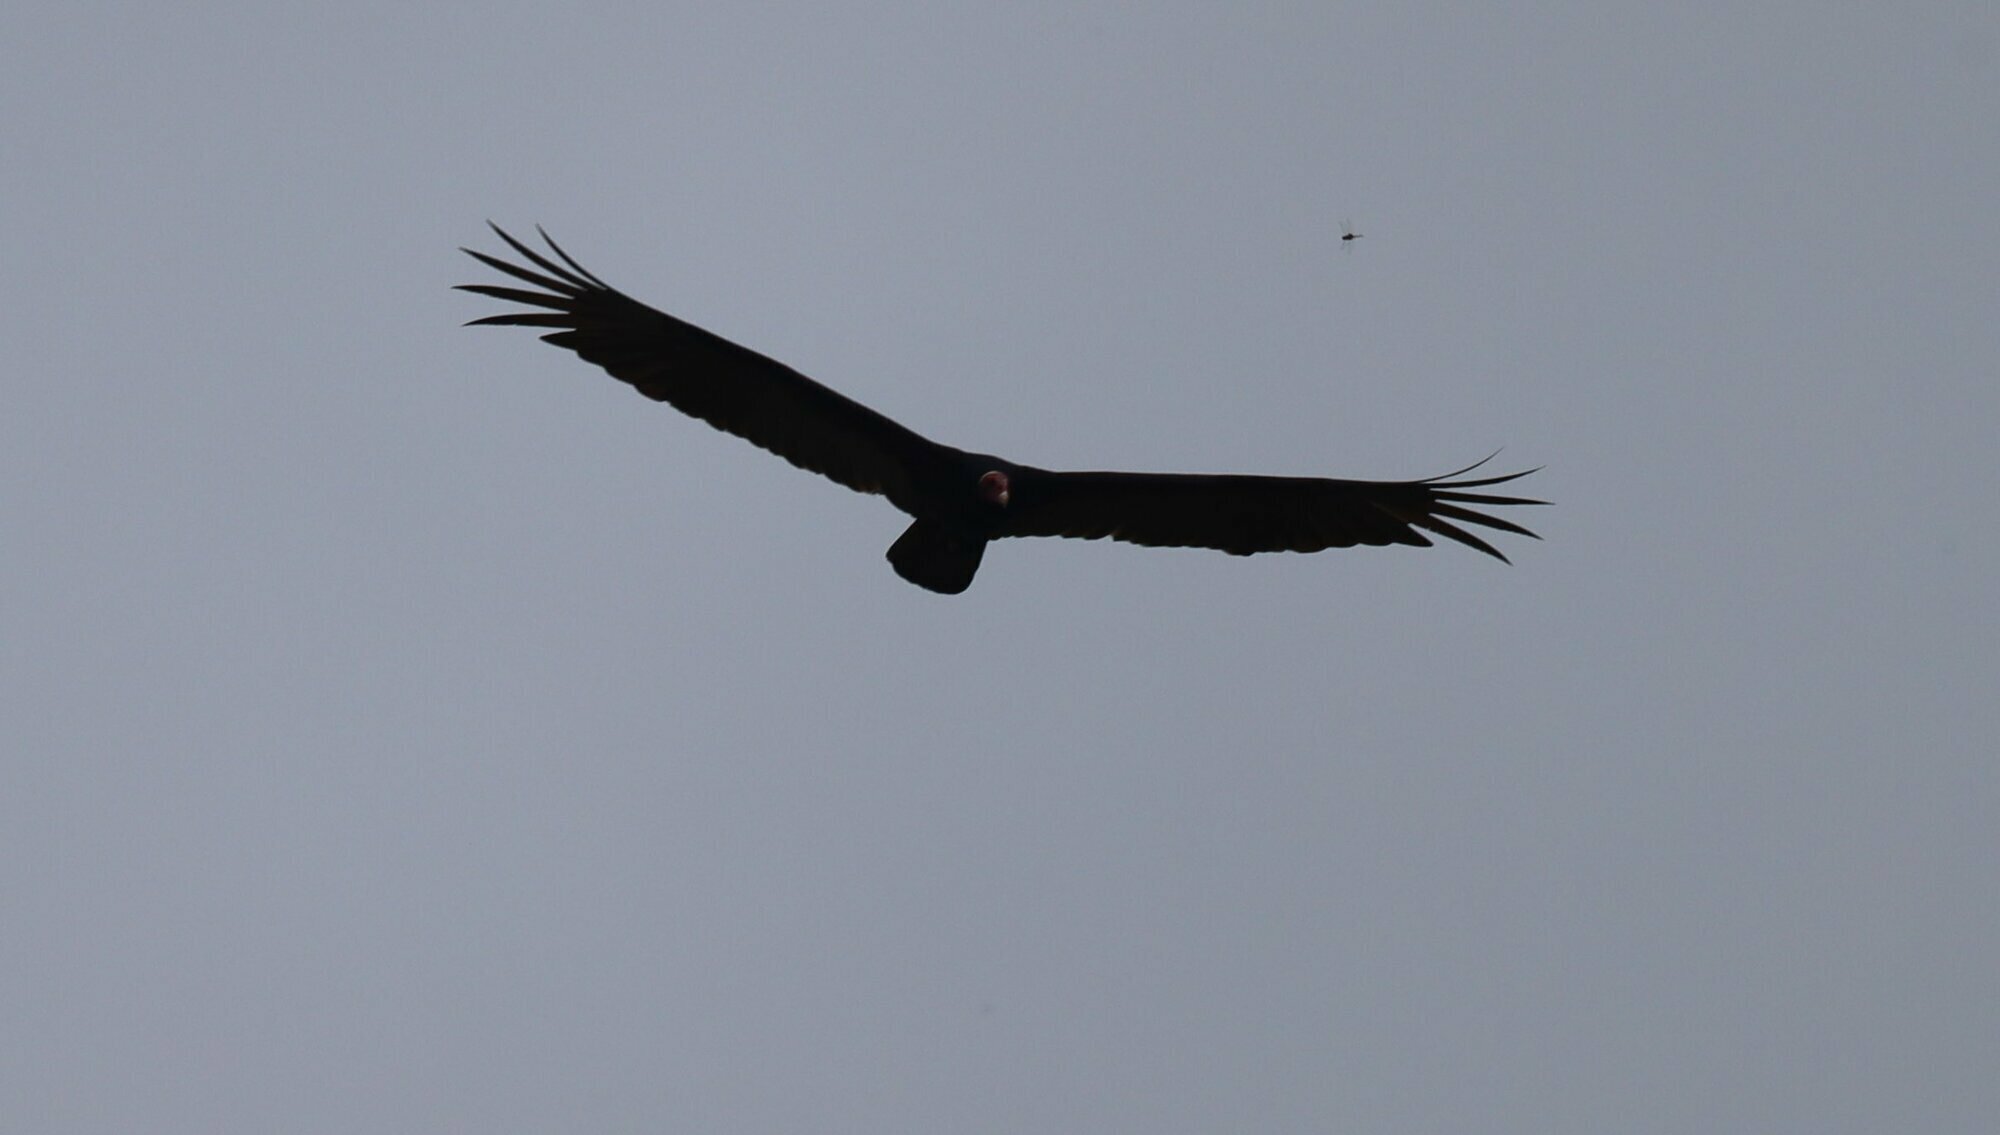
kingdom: Animalia
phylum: Chordata
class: Aves
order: Accipitriformes
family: Cathartidae
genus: Cathartes
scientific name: Cathartes aura
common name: Turkey vulture
